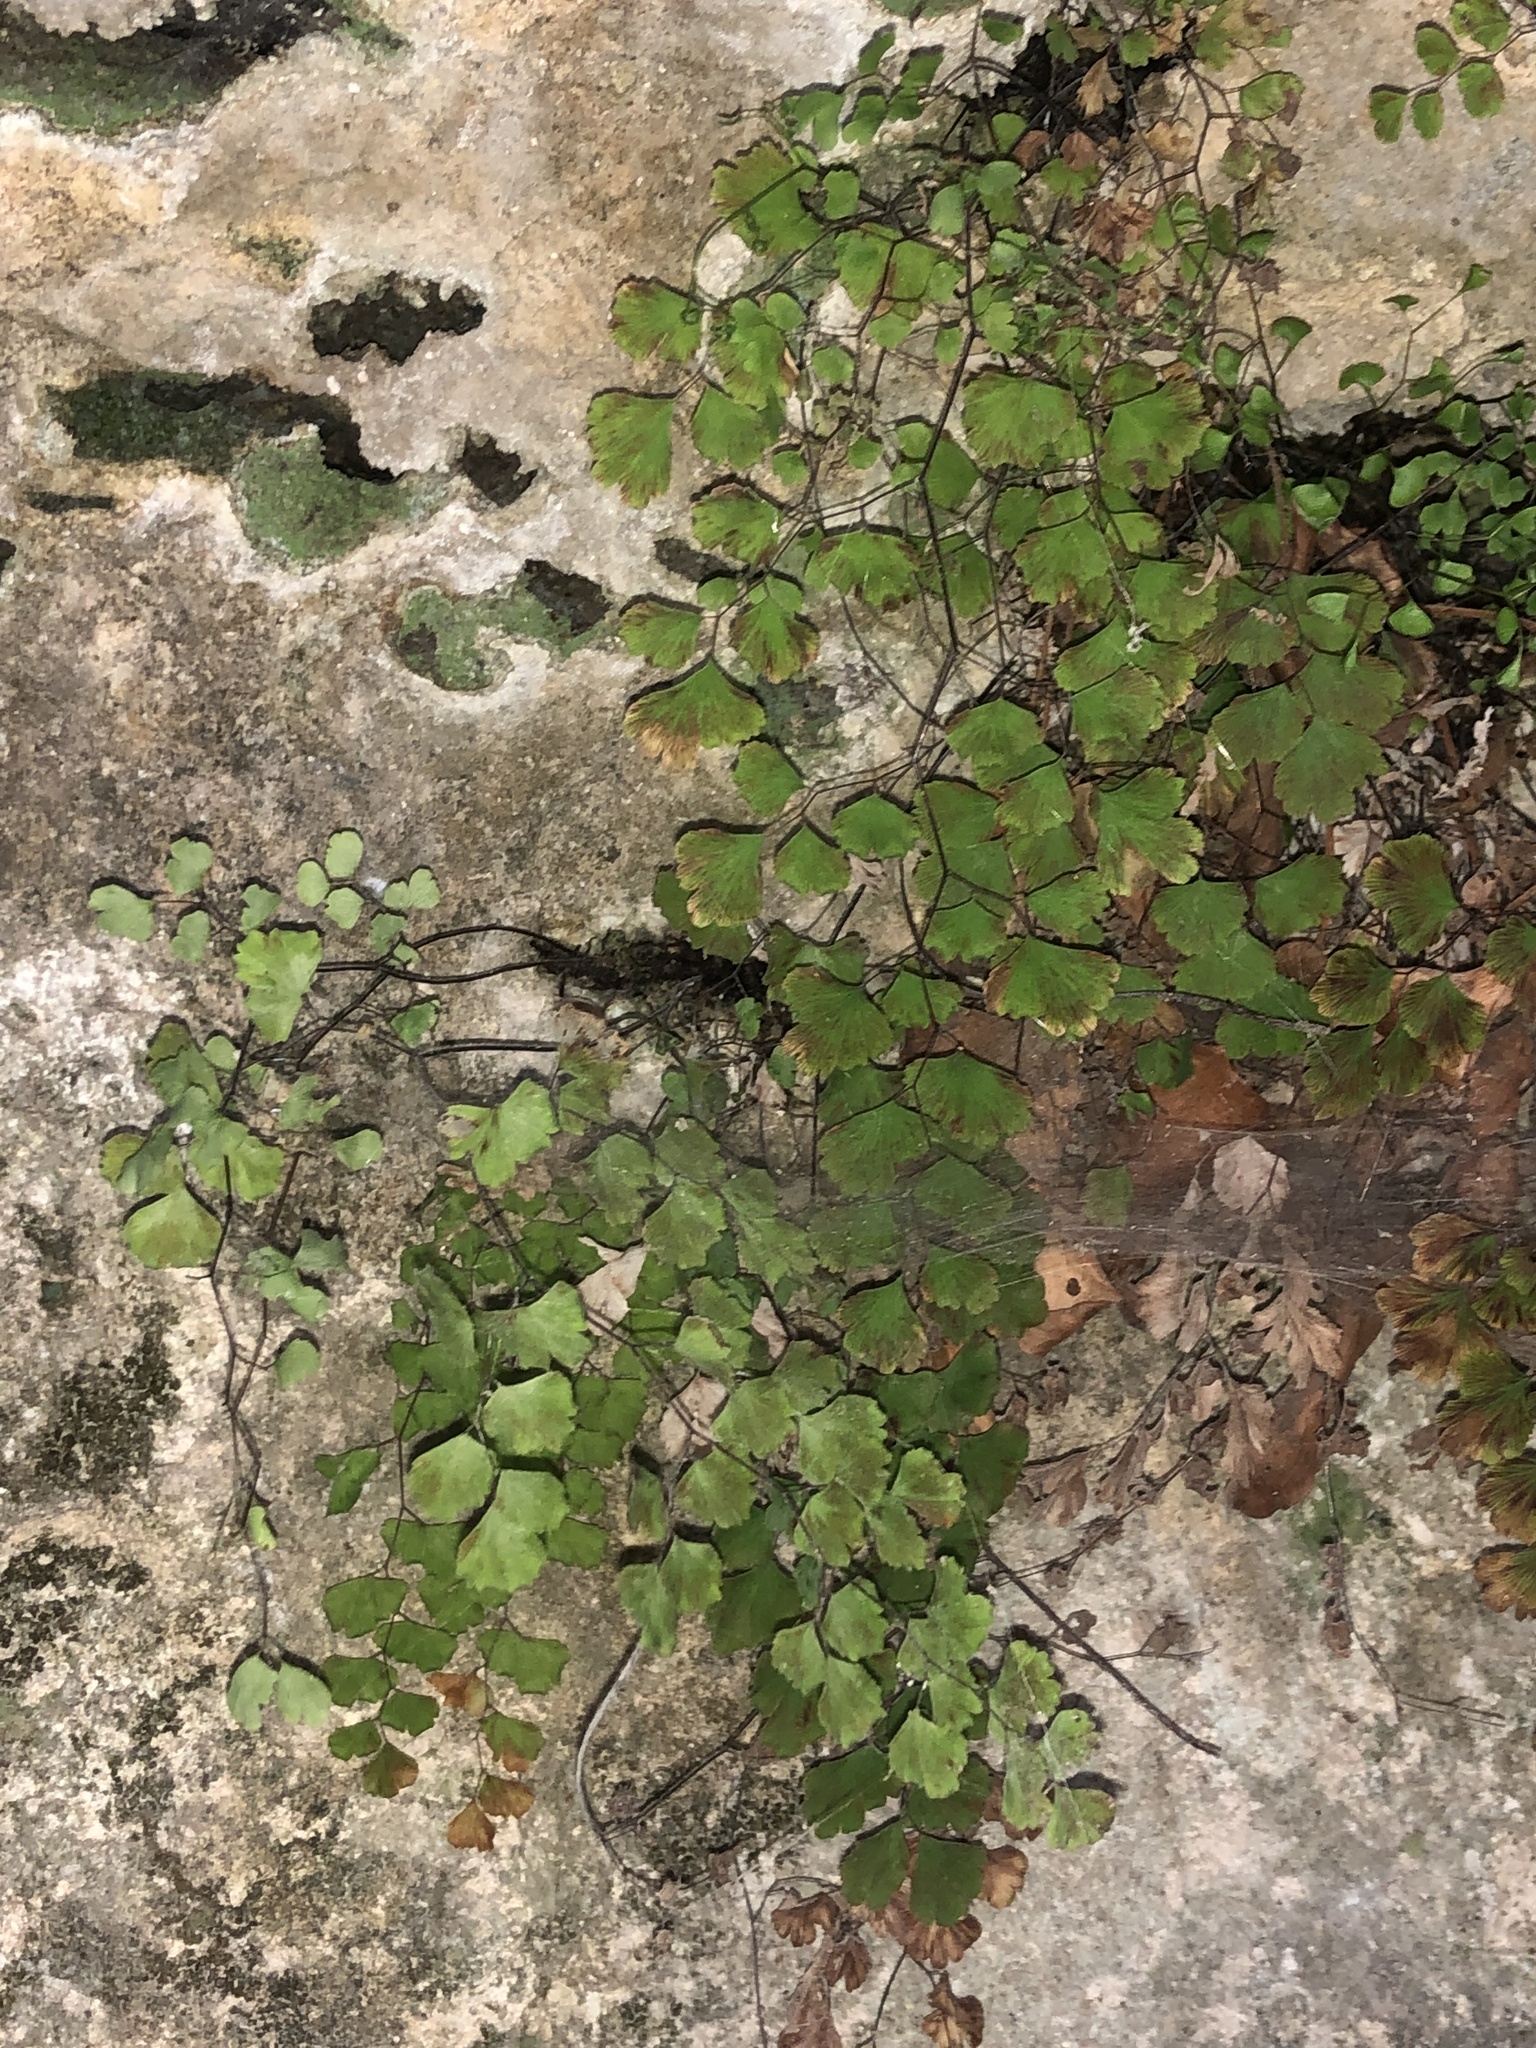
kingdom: Plantae
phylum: Tracheophyta
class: Polypodiopsida
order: Polypodiales
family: Pteridaceae
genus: Adiantum
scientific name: Adiantum capillus-veneris
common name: Maidenhair fern
